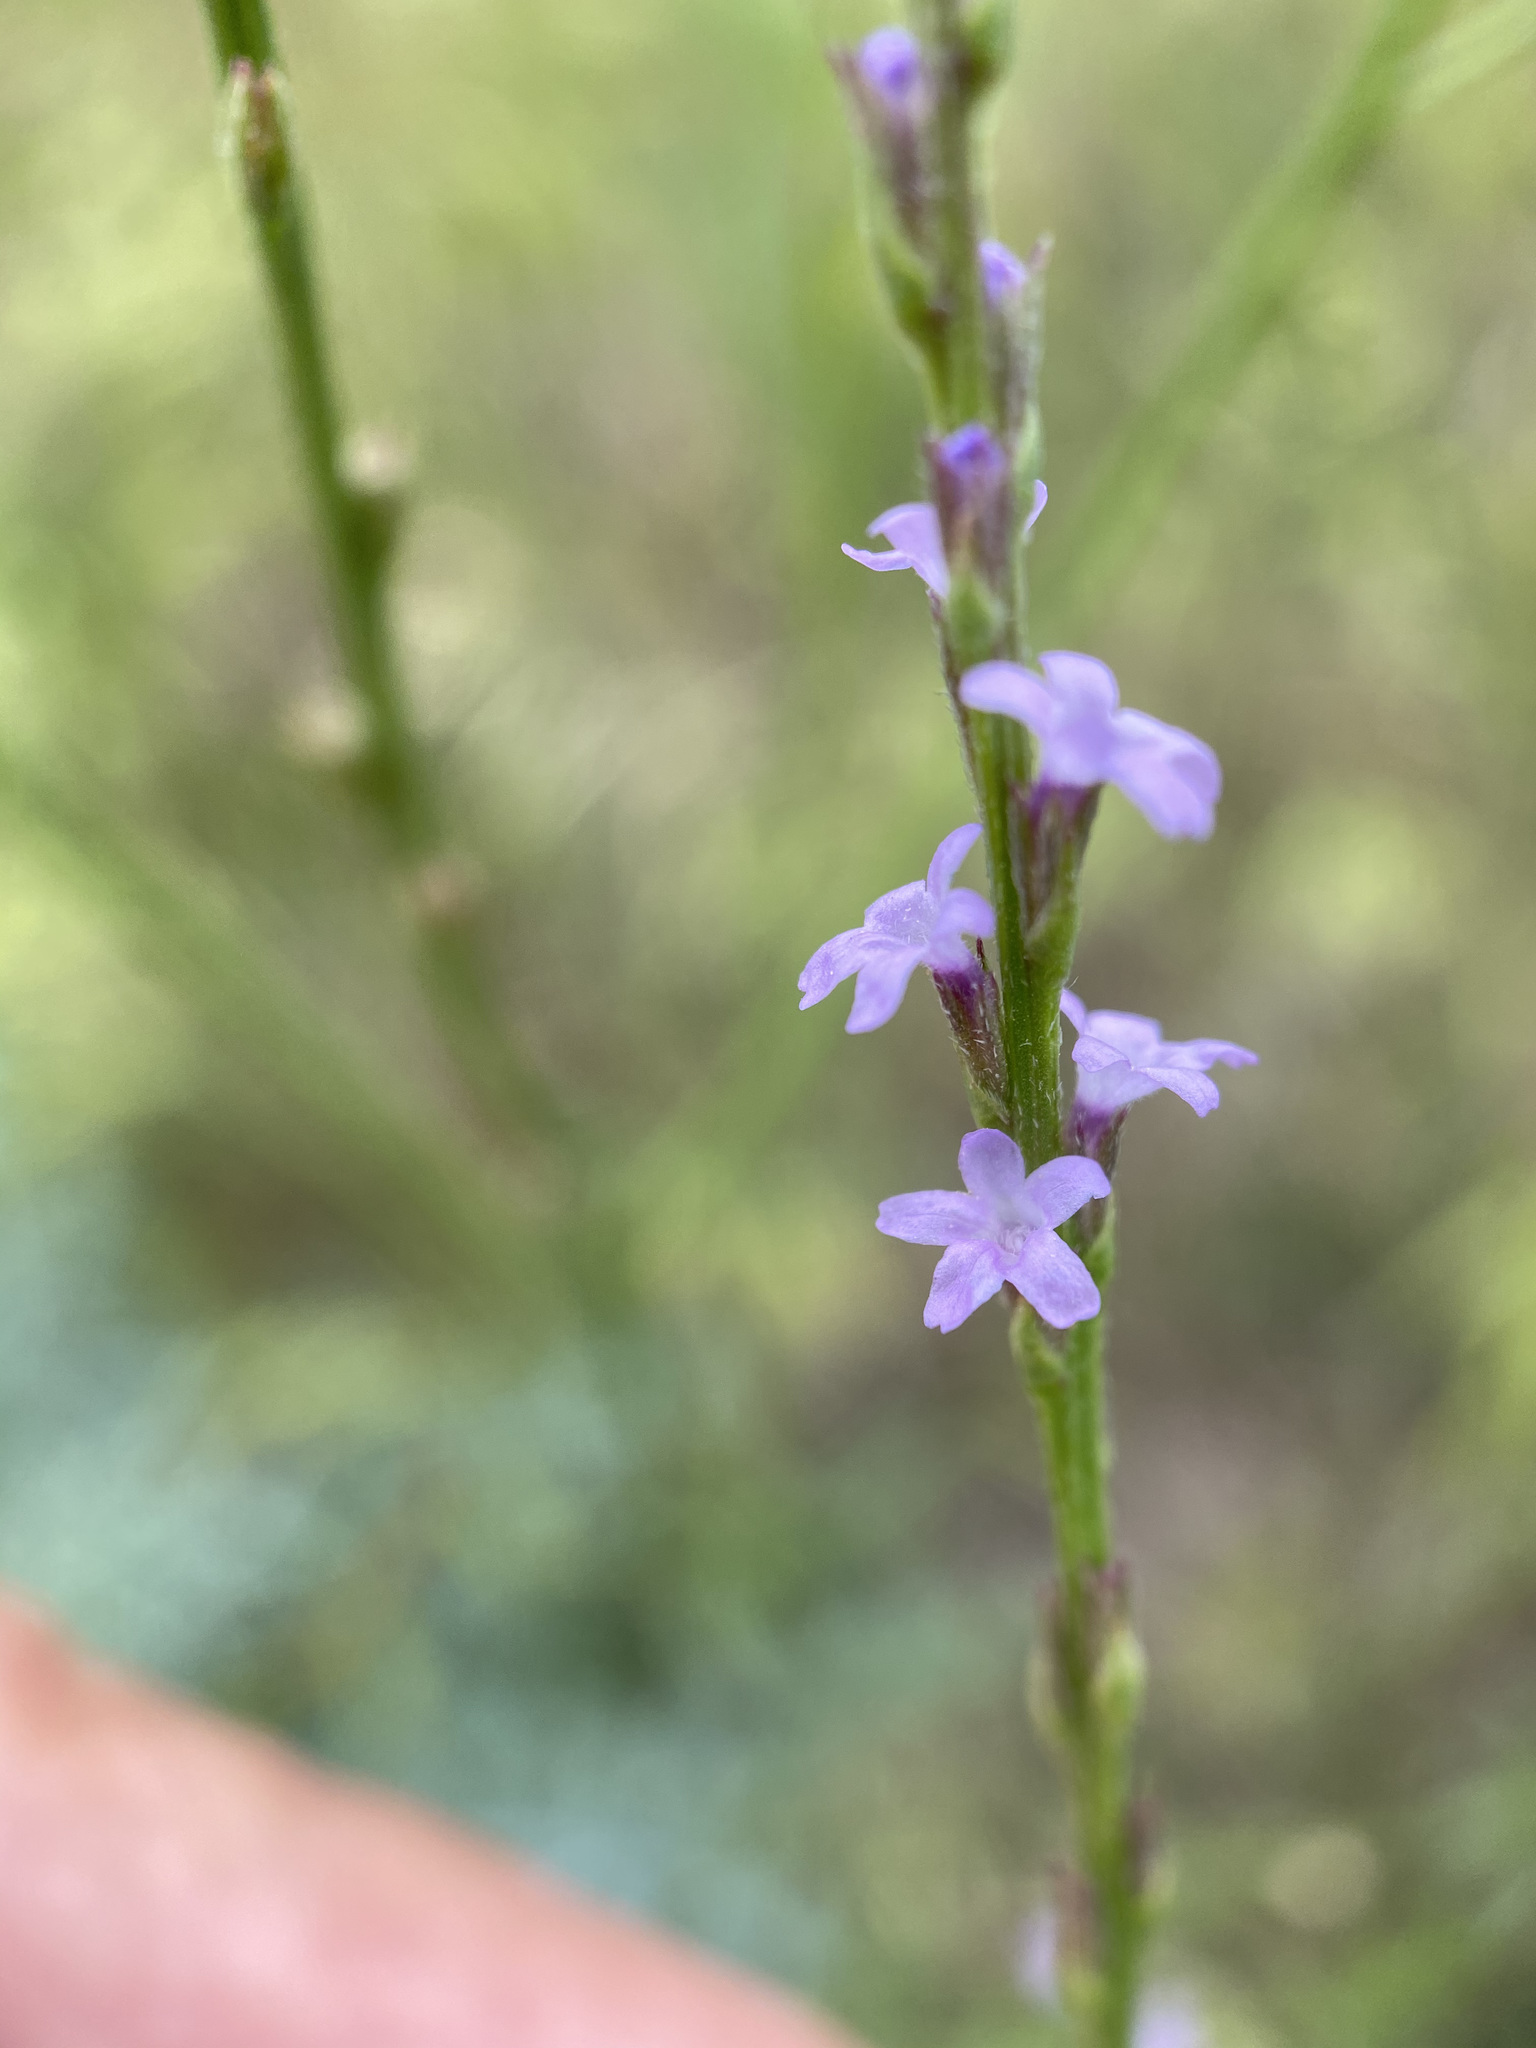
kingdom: Plantae
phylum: Tracheophyta
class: Magnoliopsida
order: Lamiales
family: Verbenaceae
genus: Verbena
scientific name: Verbena halei
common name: Texas vervain
